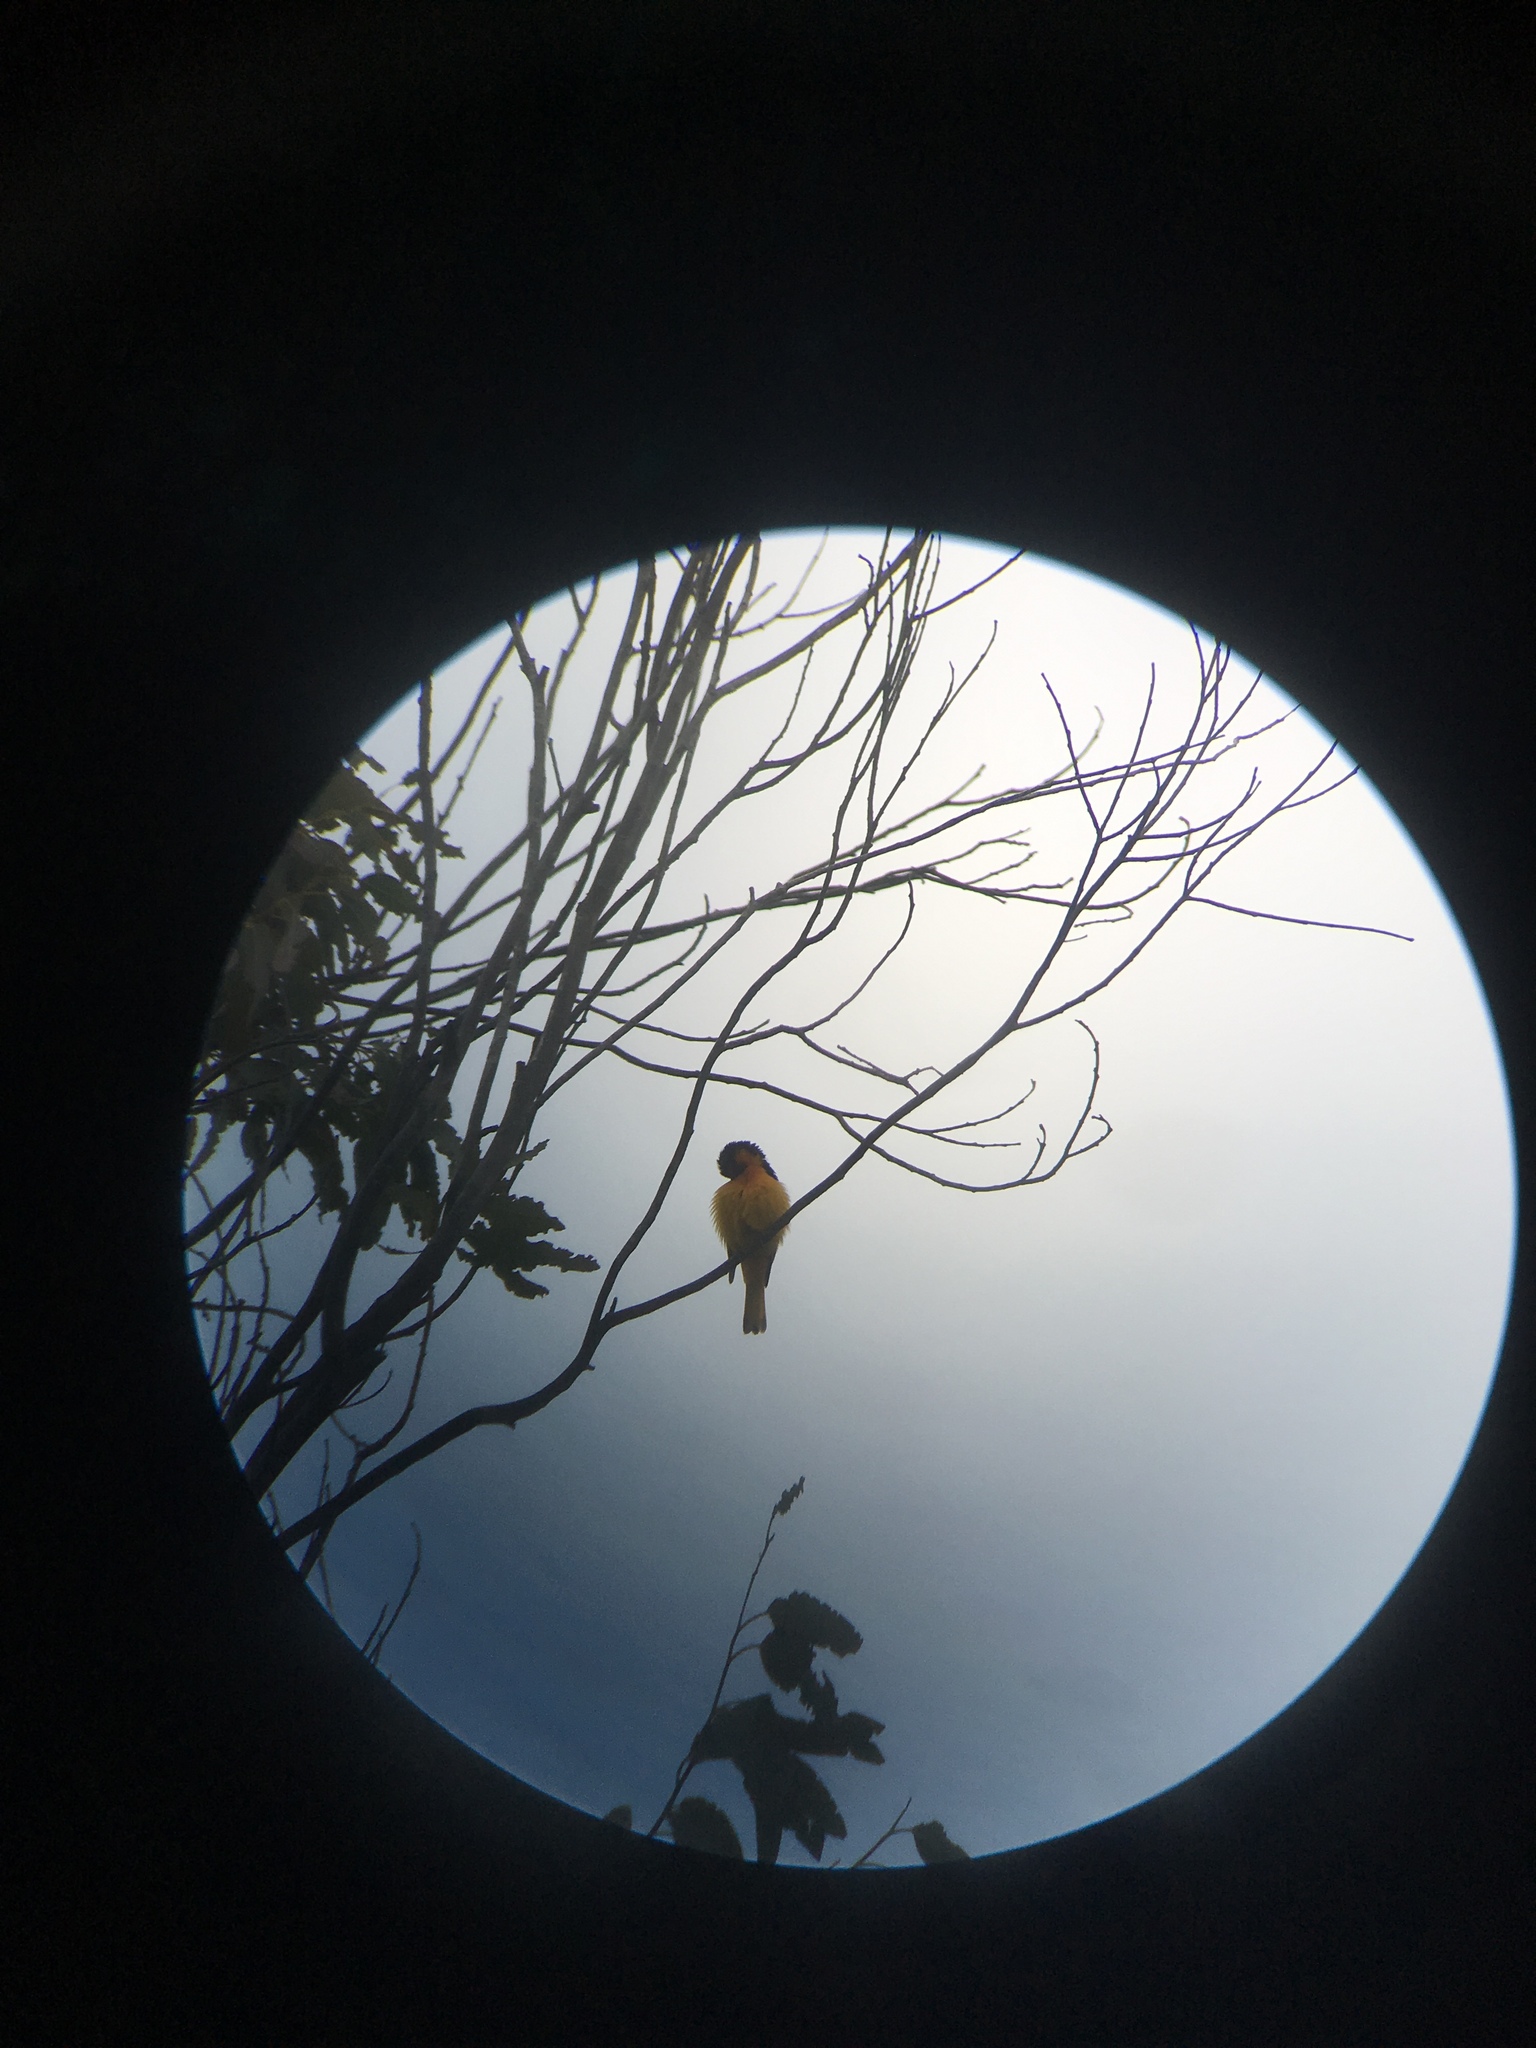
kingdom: Animalia
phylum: Chordata
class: Aves
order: Passeriformes
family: Icteridae
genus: Icterus
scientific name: Icterus bullockii
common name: Bullock's oriole
